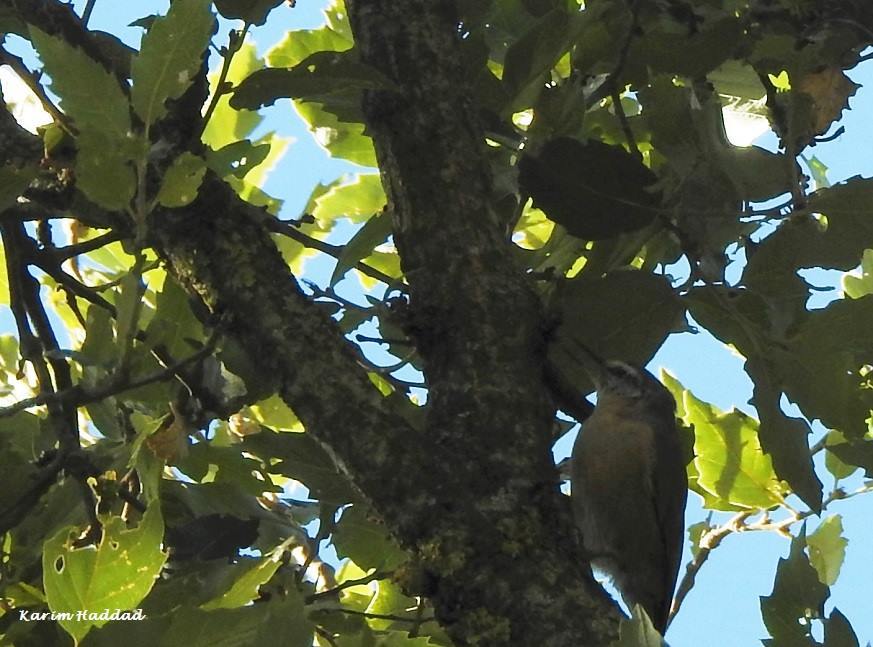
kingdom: Animalia
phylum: Chordata
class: Aves
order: Passeriformes
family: Sittidae
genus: Sitta
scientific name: Sitta ledanti
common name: Algerian nuthatch
